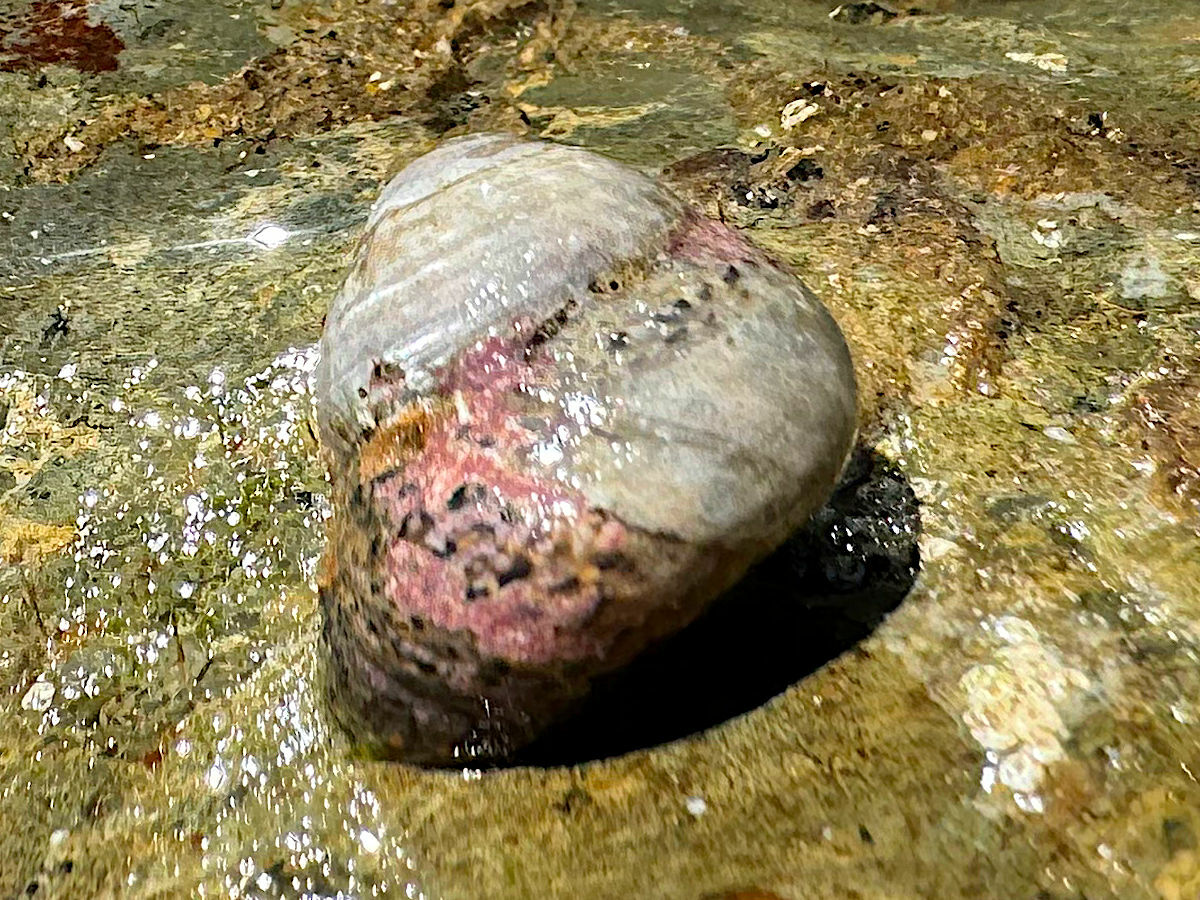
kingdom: Animalia
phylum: Mollusca
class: Gastropoda
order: Trochida
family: Tegulidae
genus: Tegula
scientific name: Tegula eiseni
